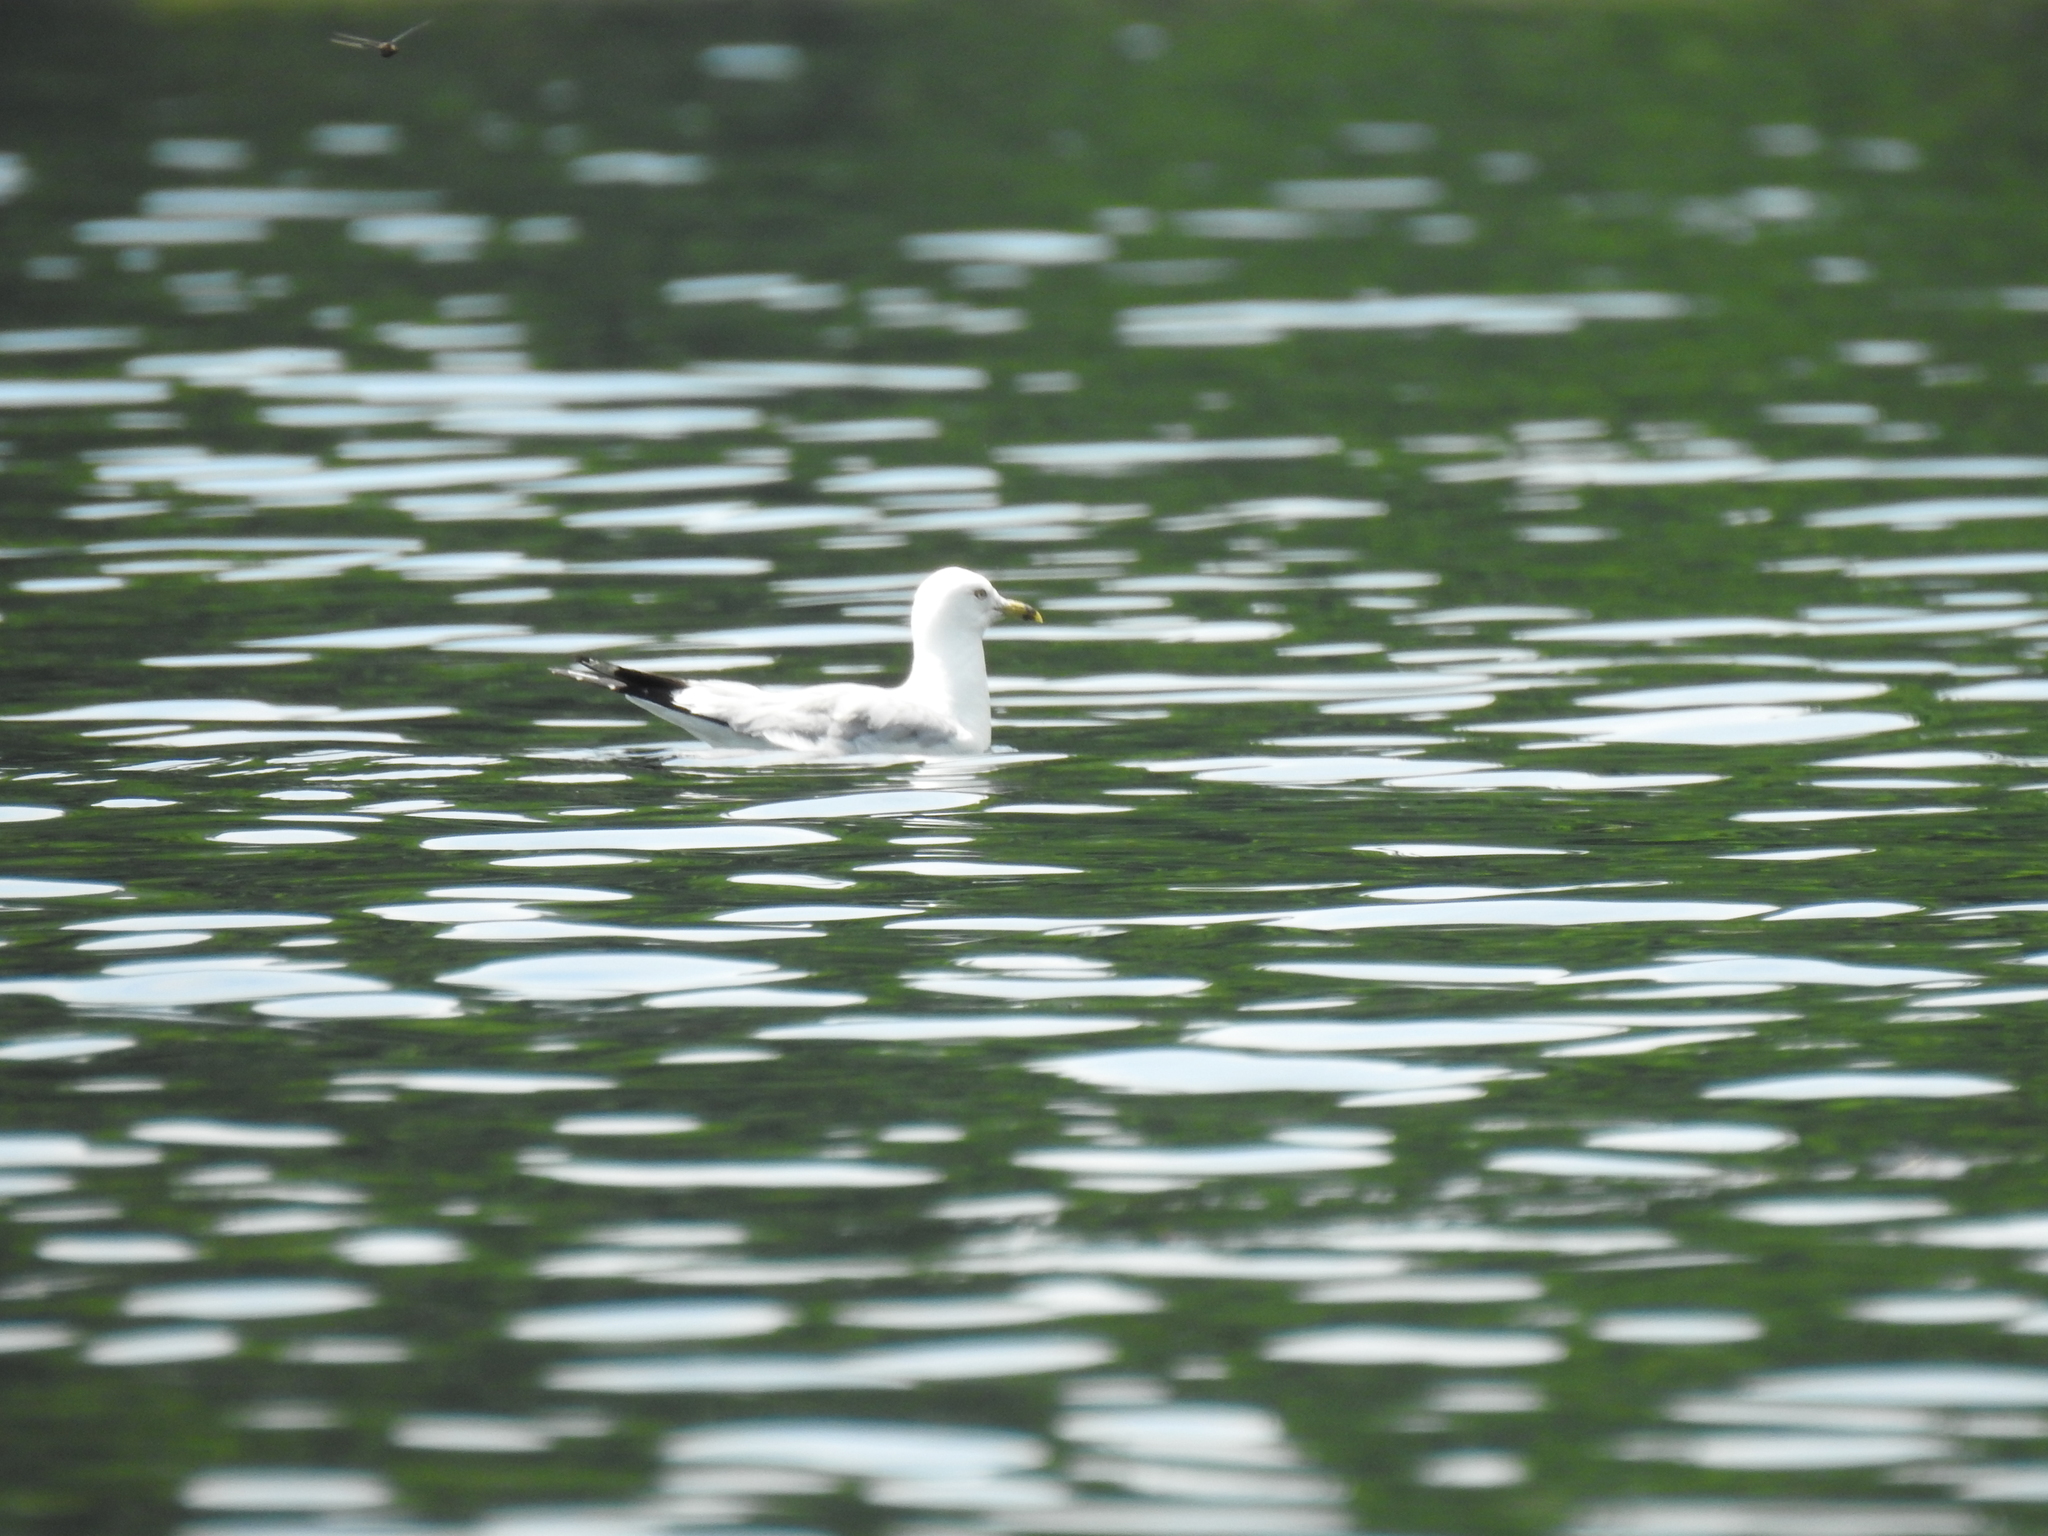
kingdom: Animalia
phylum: Chordata
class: Aves
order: Charadriiformes
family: Laridae
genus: Larus
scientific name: Larus delawarensis
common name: Ring-billed gull
